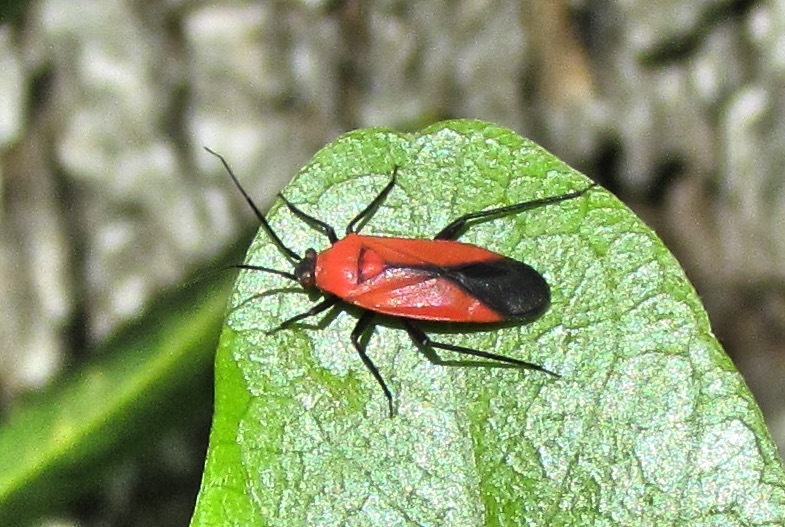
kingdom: Animalia
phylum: Arthropoda
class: Insecta
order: Hemiptera
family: Miridae
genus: Lopidea
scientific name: Lopidea major
